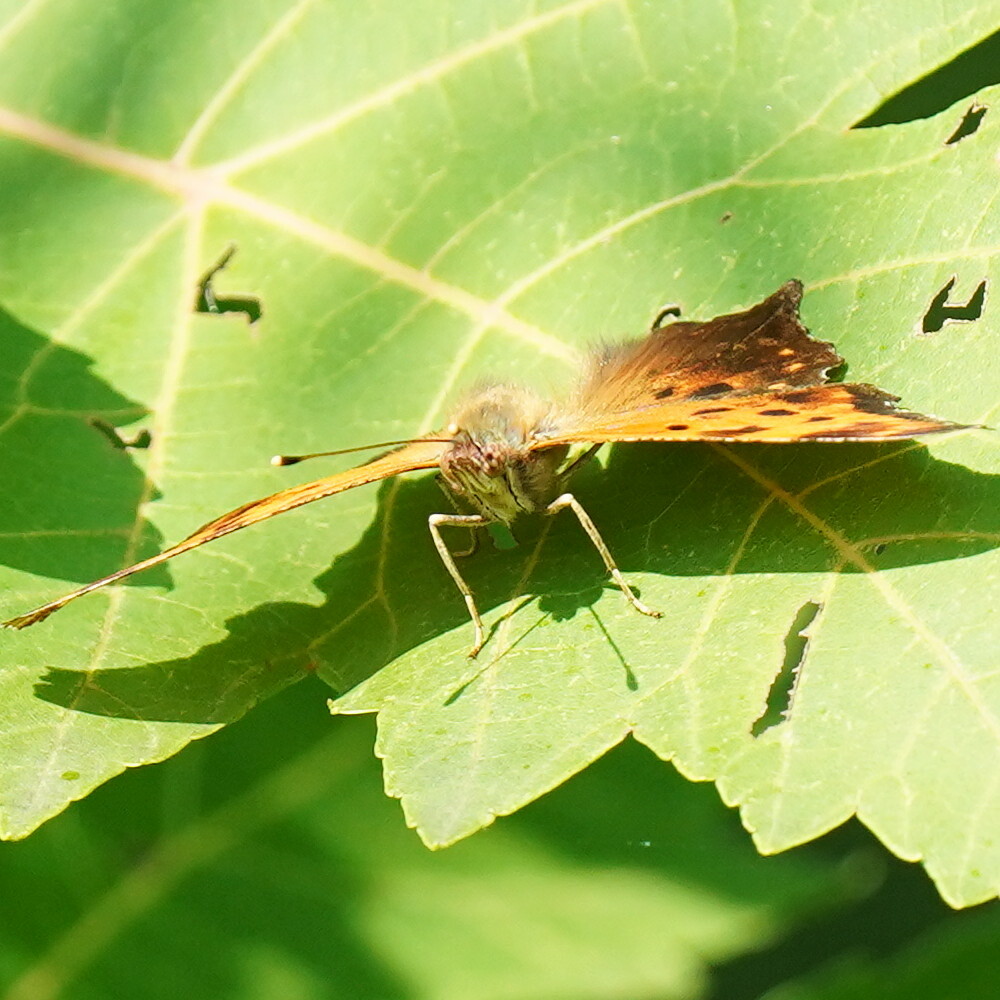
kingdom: Animalia
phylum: Arthropoda
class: Insecta
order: Lepidoptera
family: Nymphalidae
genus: Polygonia
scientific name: Polygonia comma
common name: Eastern comma
